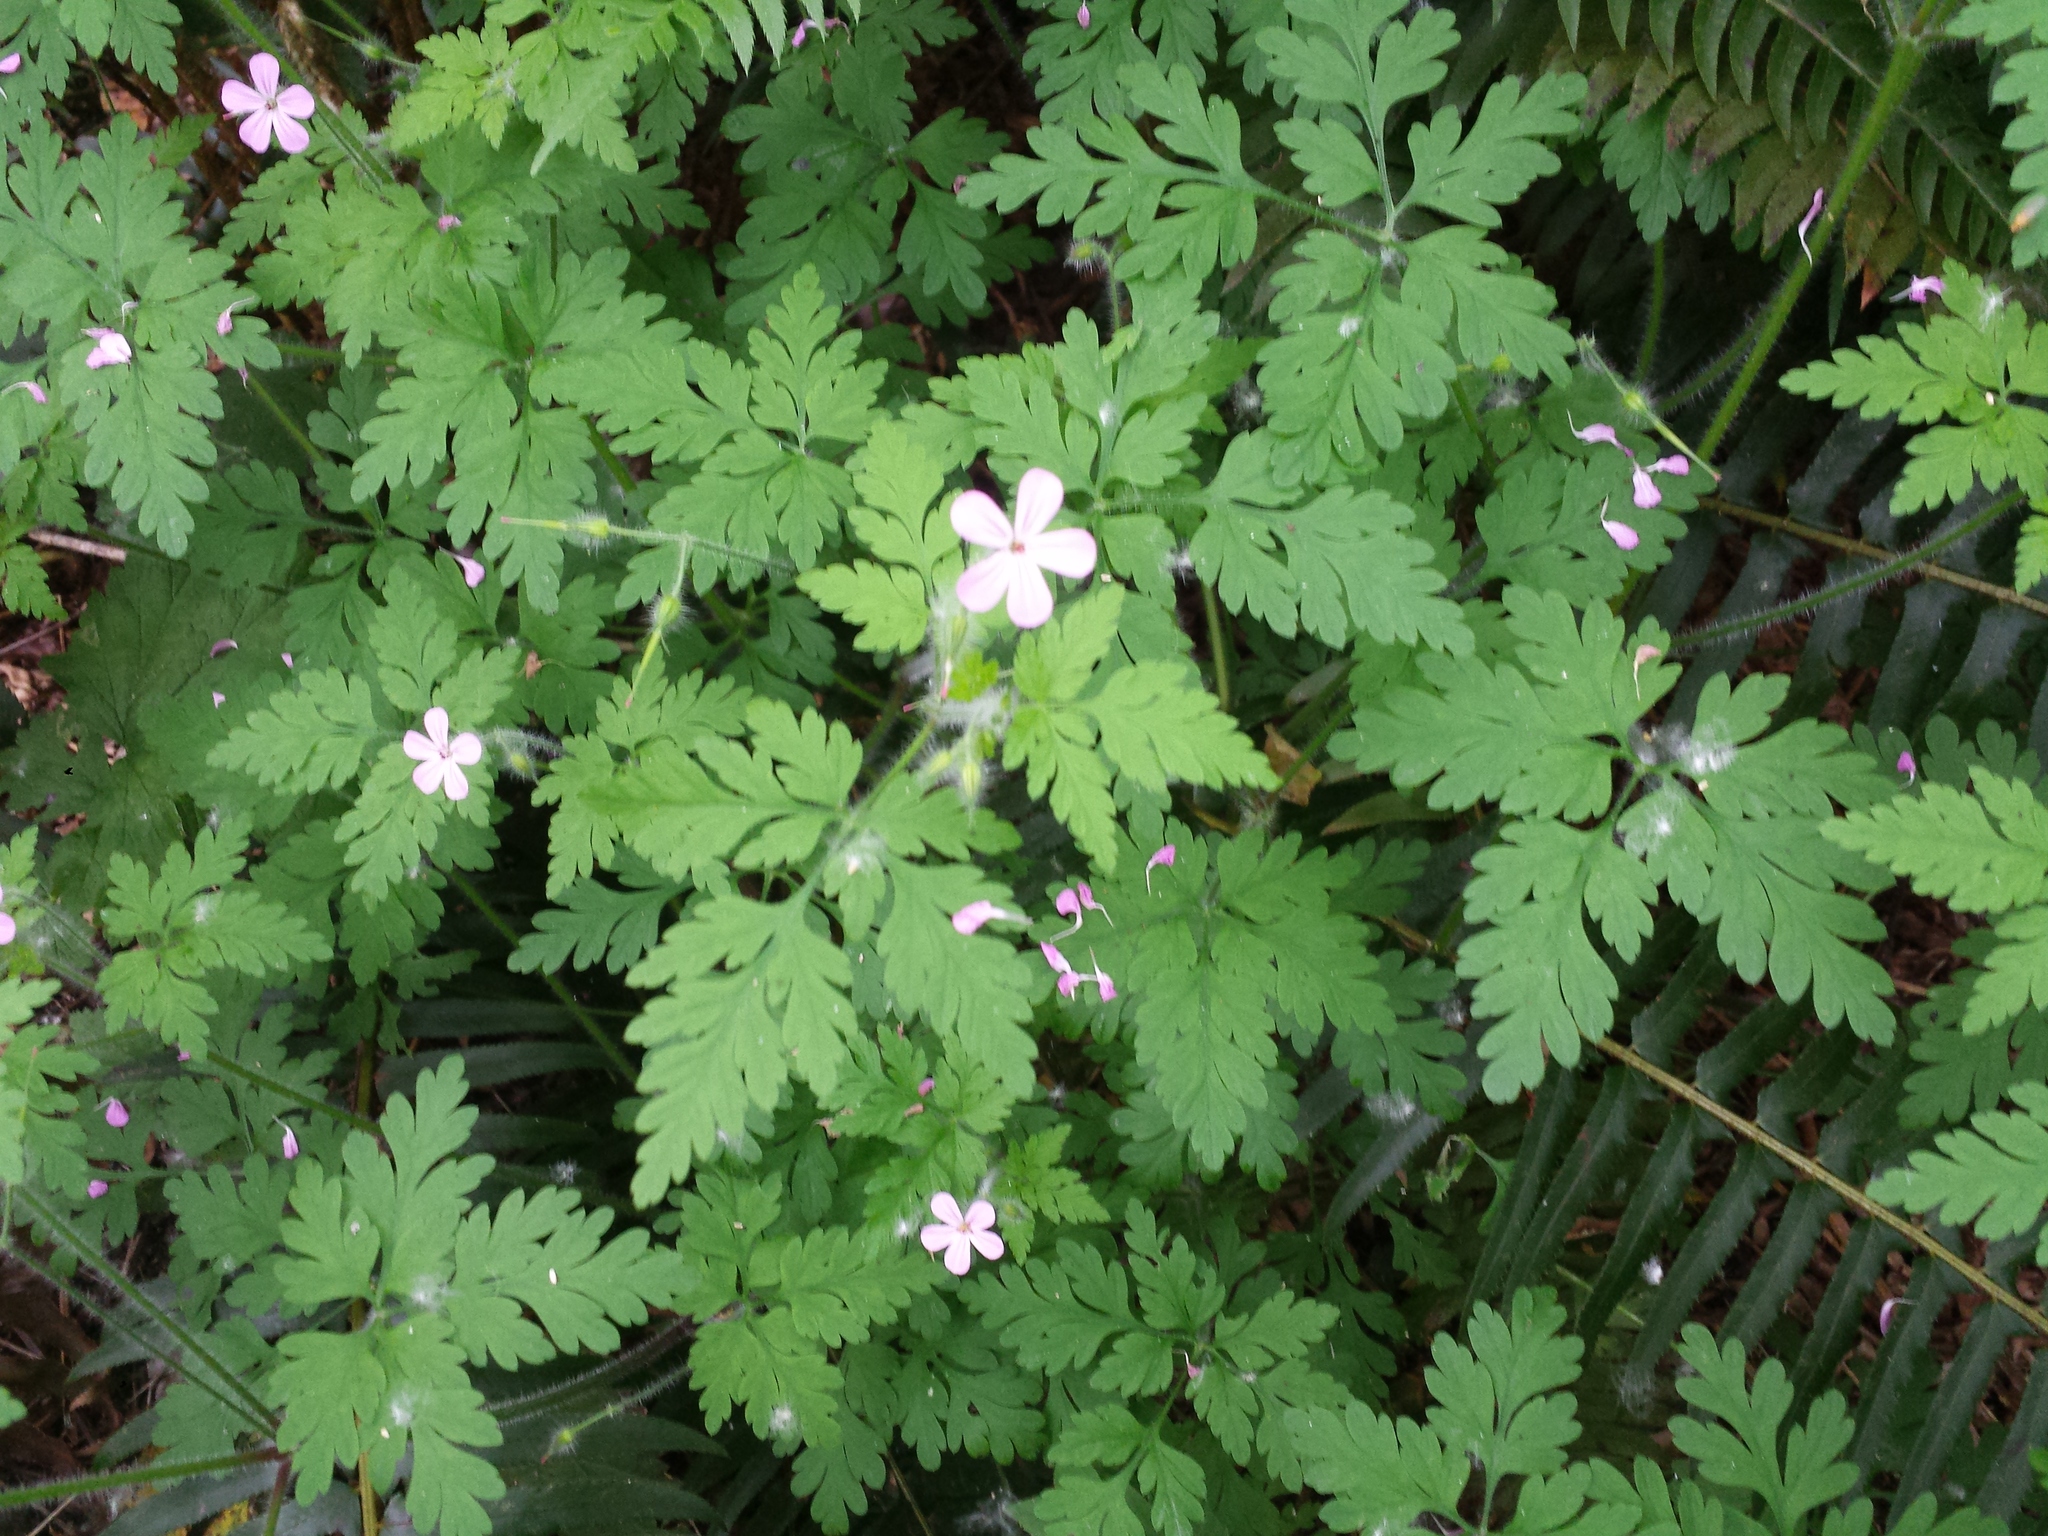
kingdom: Plantae
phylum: Tracheophyta
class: Magnoliopsida
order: Geraniales
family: Geraniaceae
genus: Geranium
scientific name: Geranium robertianum
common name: Herb-robert
